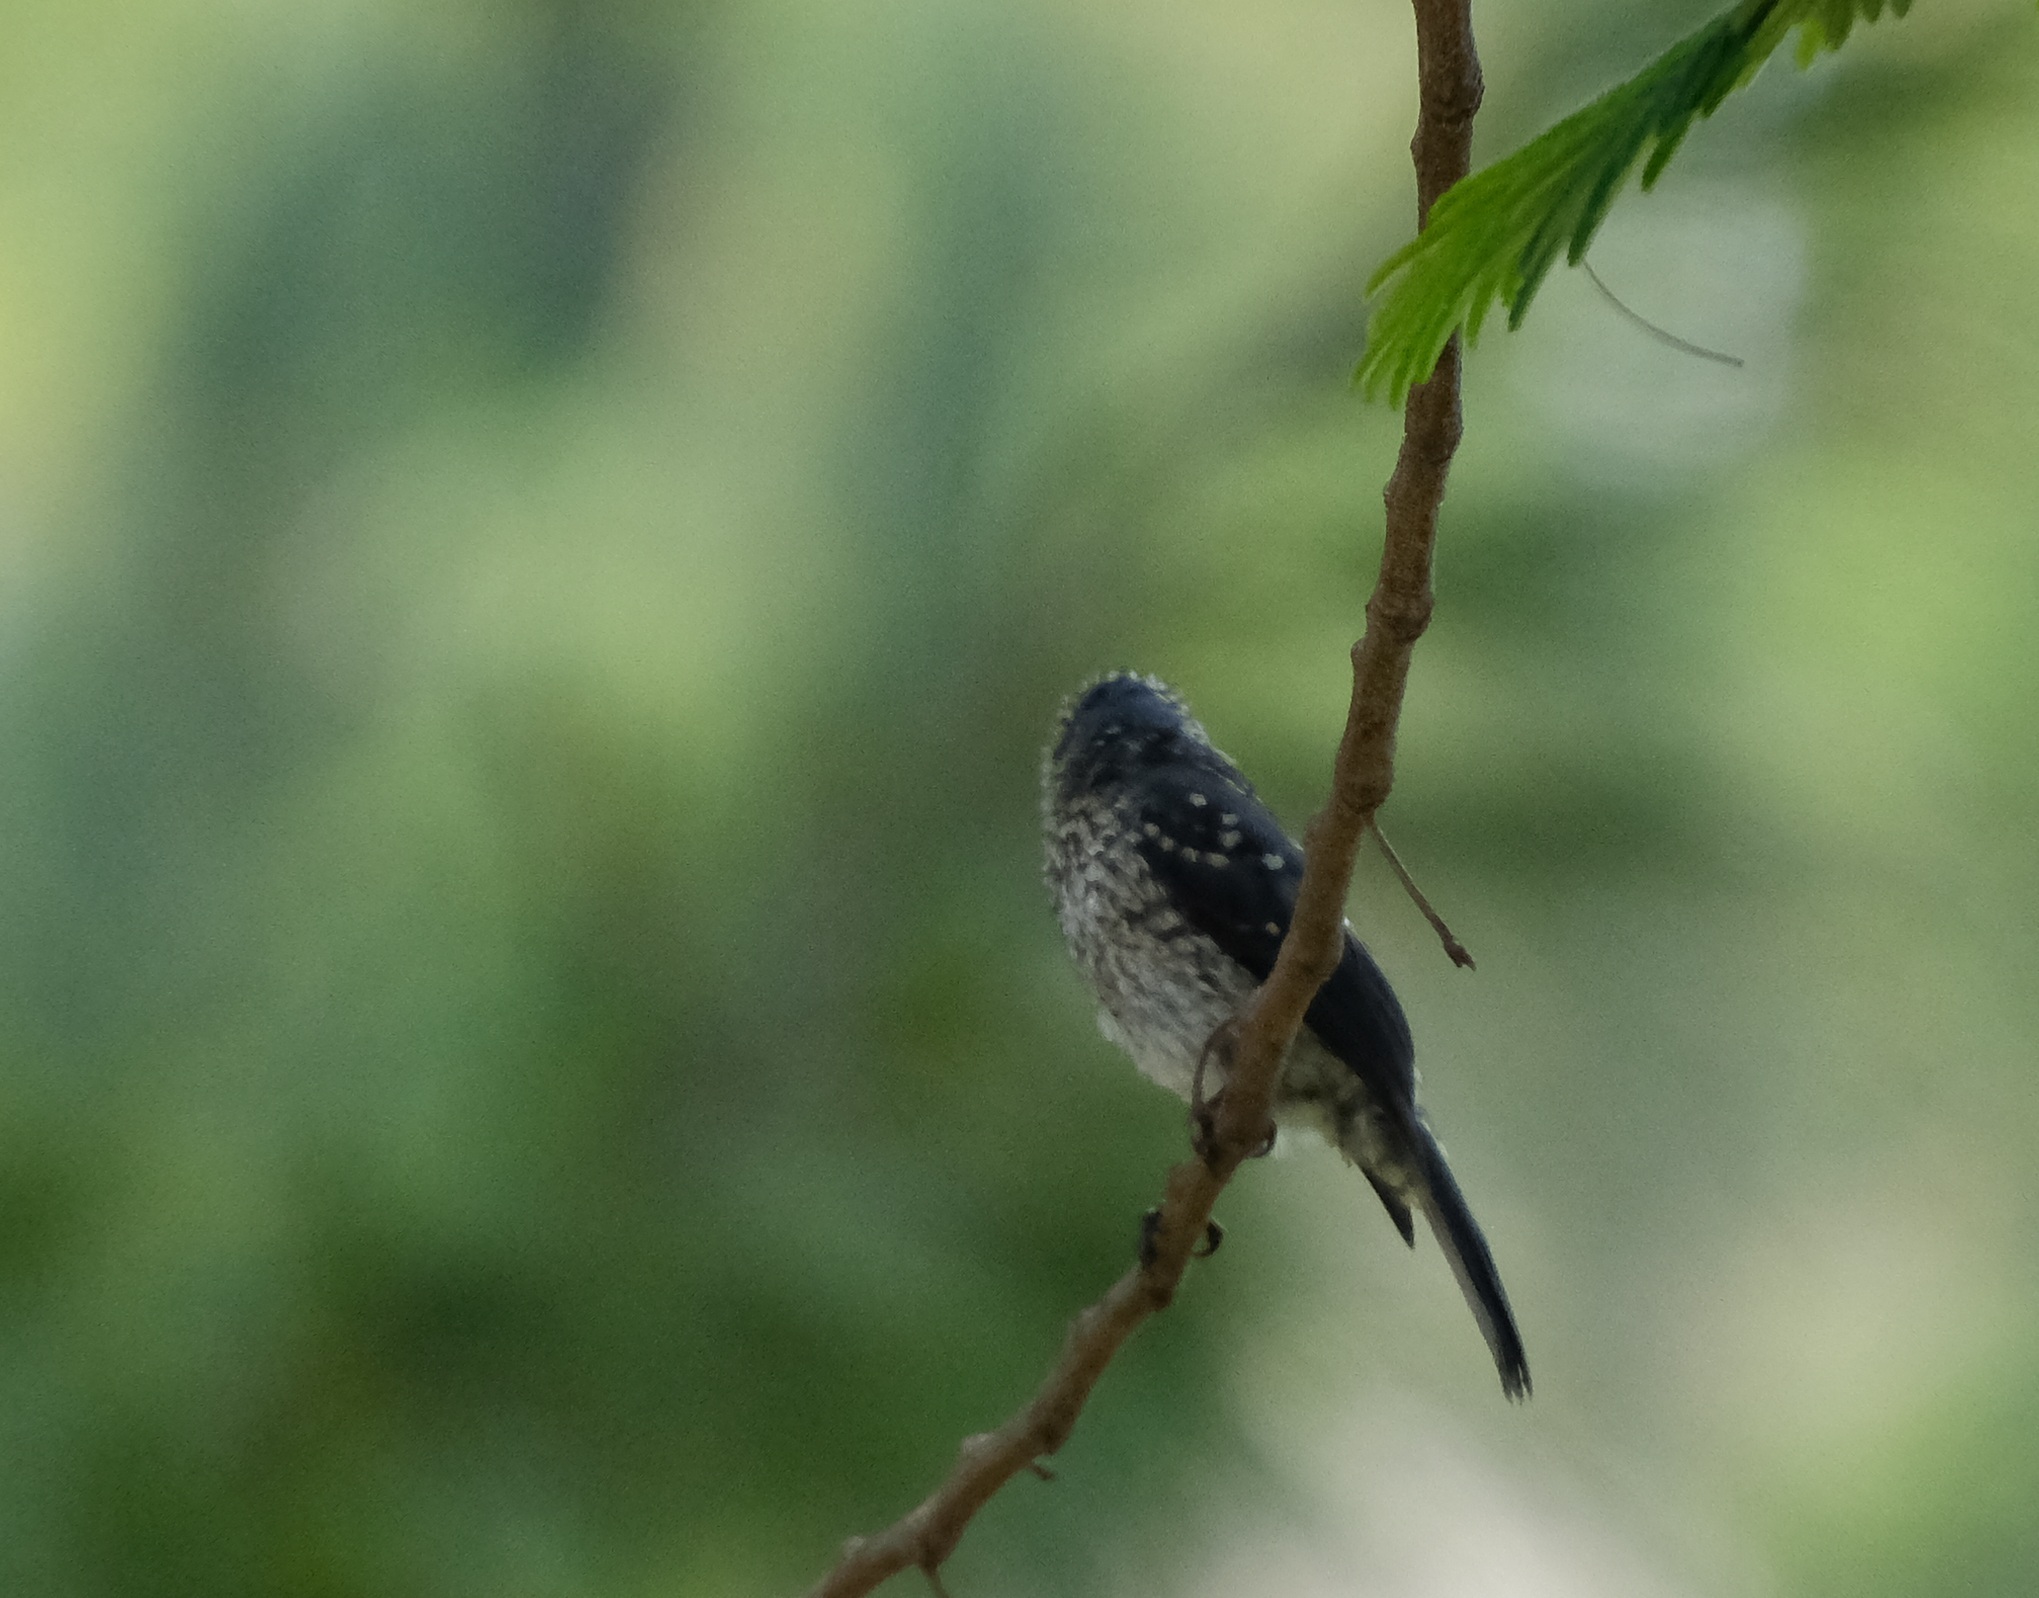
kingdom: Animalia
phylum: Chordata
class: Aves
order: Passeriformes
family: Muscicapidae
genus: Dioptrornis
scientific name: Dioptrornis fischeri
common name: White-eyed slaty flycatcher
